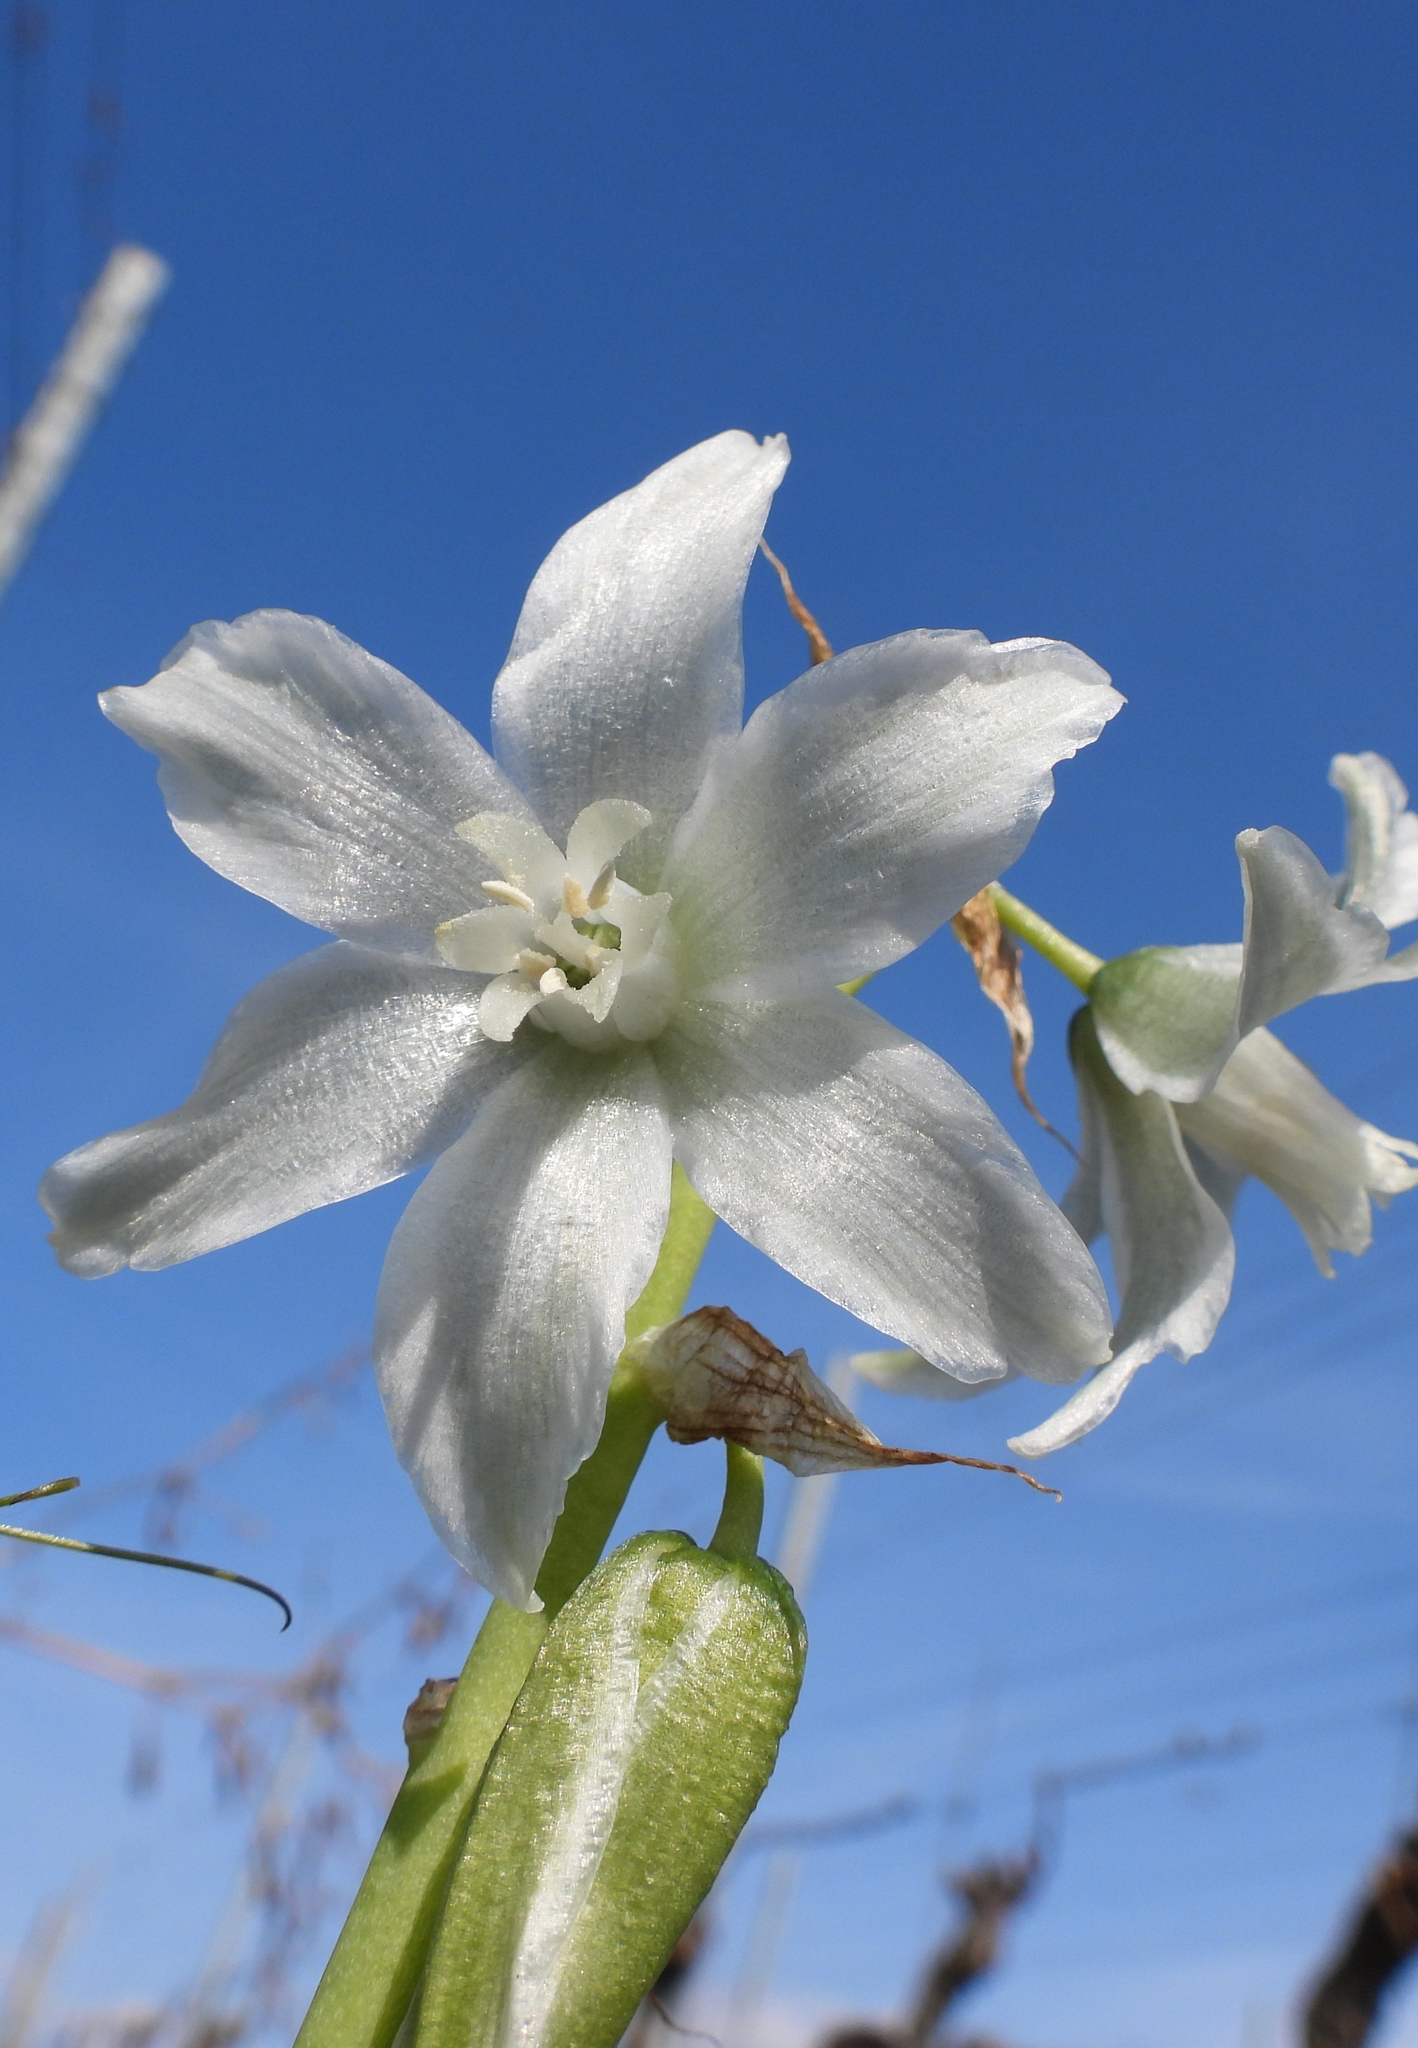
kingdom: Plantae
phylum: Tracheophyta
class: Liliopsida
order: Asparagales
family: Asparagaceae
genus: Ornithogalum
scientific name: Ornithogalum nutans
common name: Drooping star-of-bethlehem
